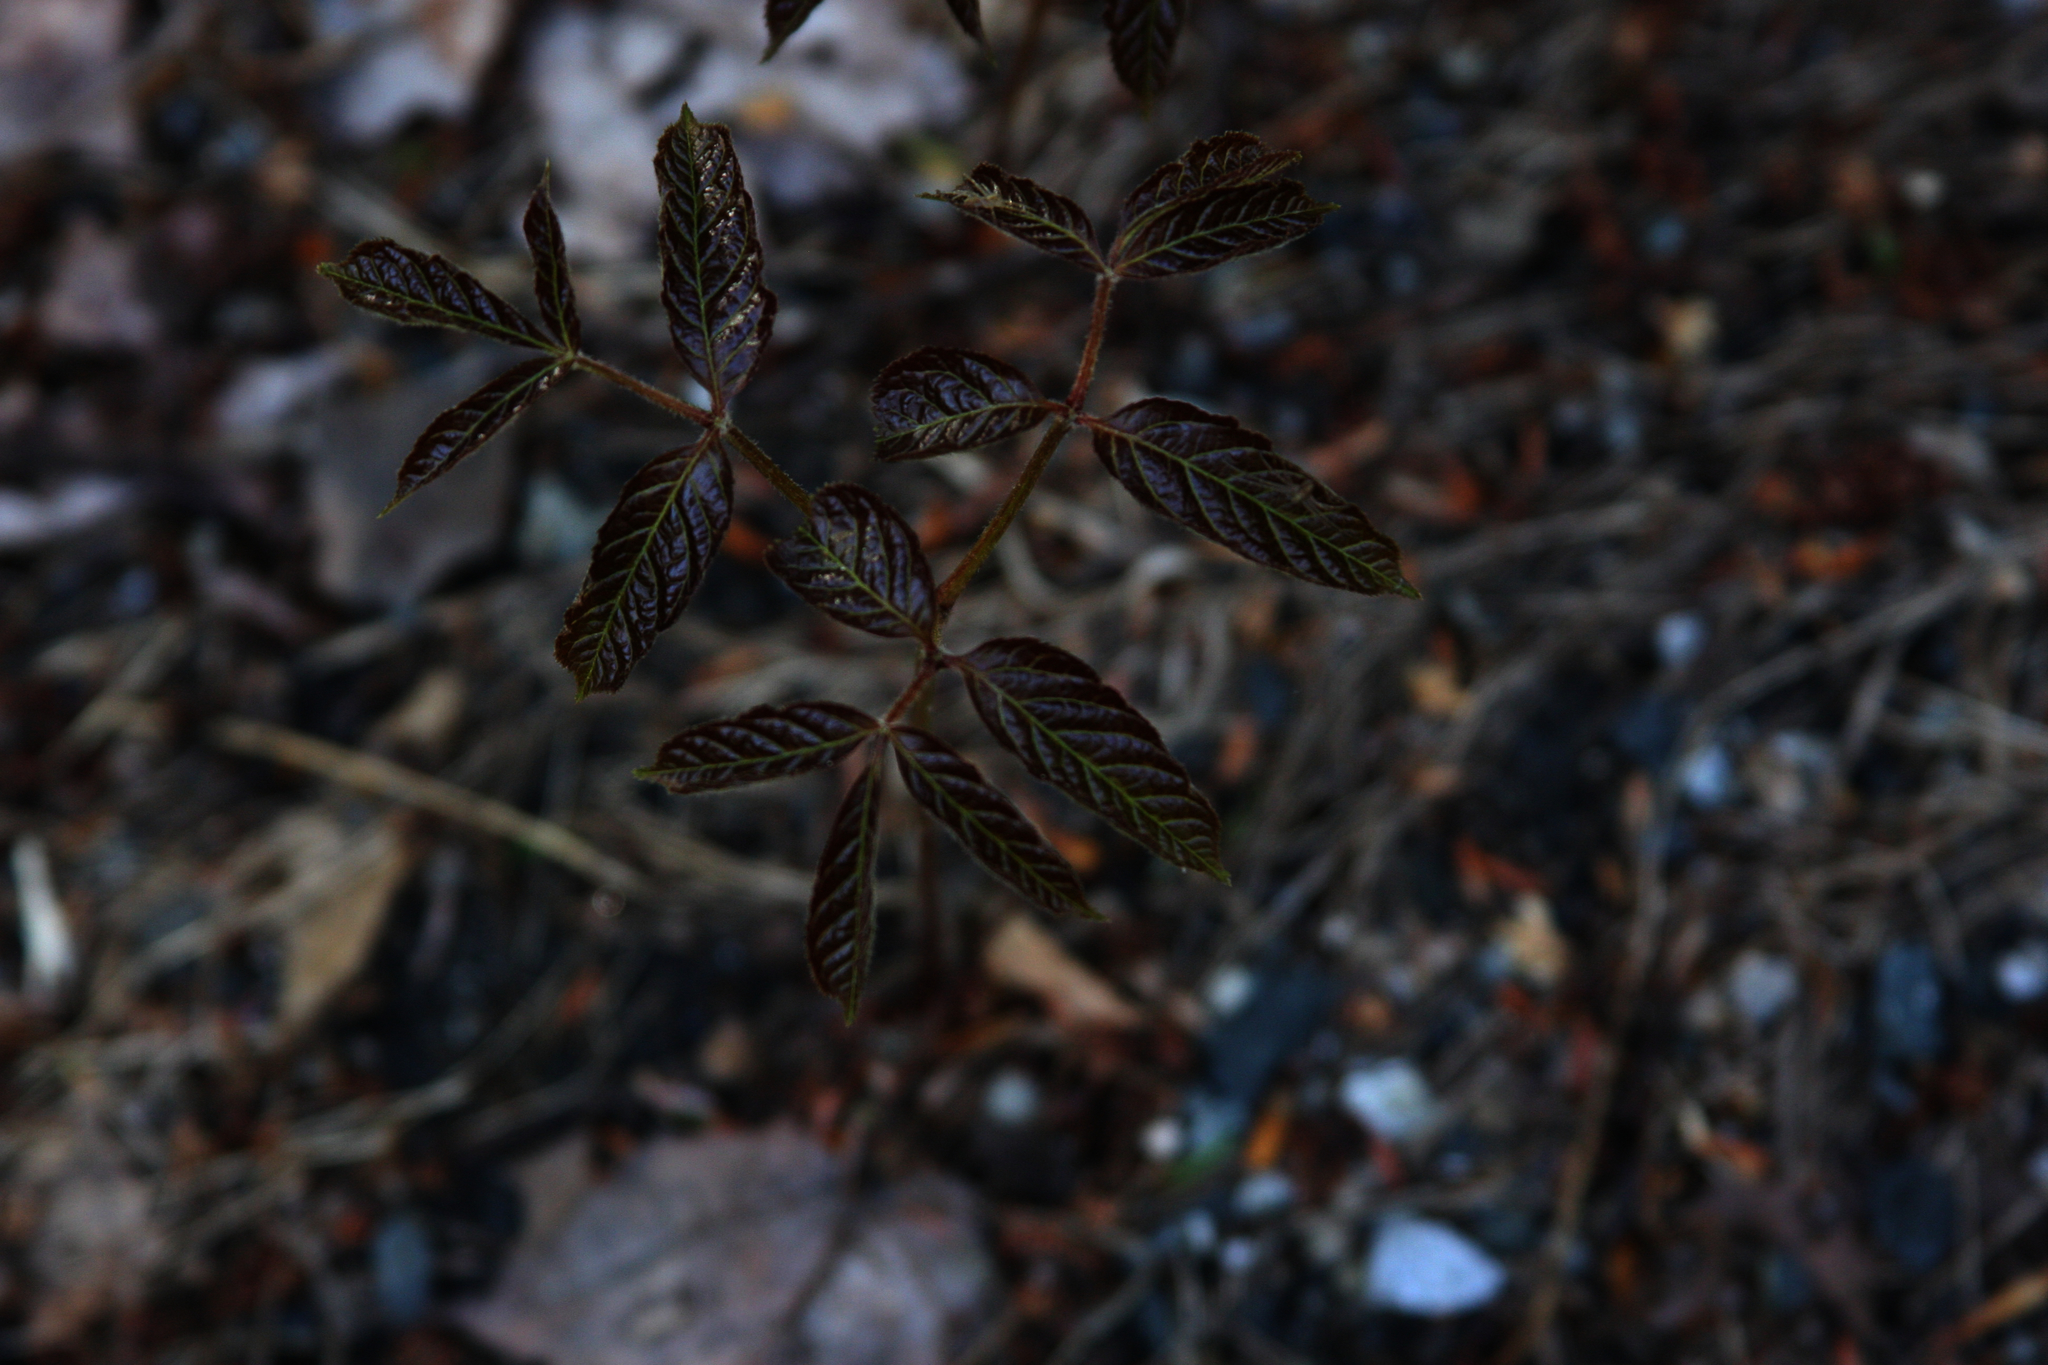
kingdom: Plantae
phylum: Tracheophyta
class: Magnoliopsida
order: Apiales
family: Araliaceae
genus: Aralia
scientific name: Aralia nudicaulis
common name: Wild sarsaparilla
